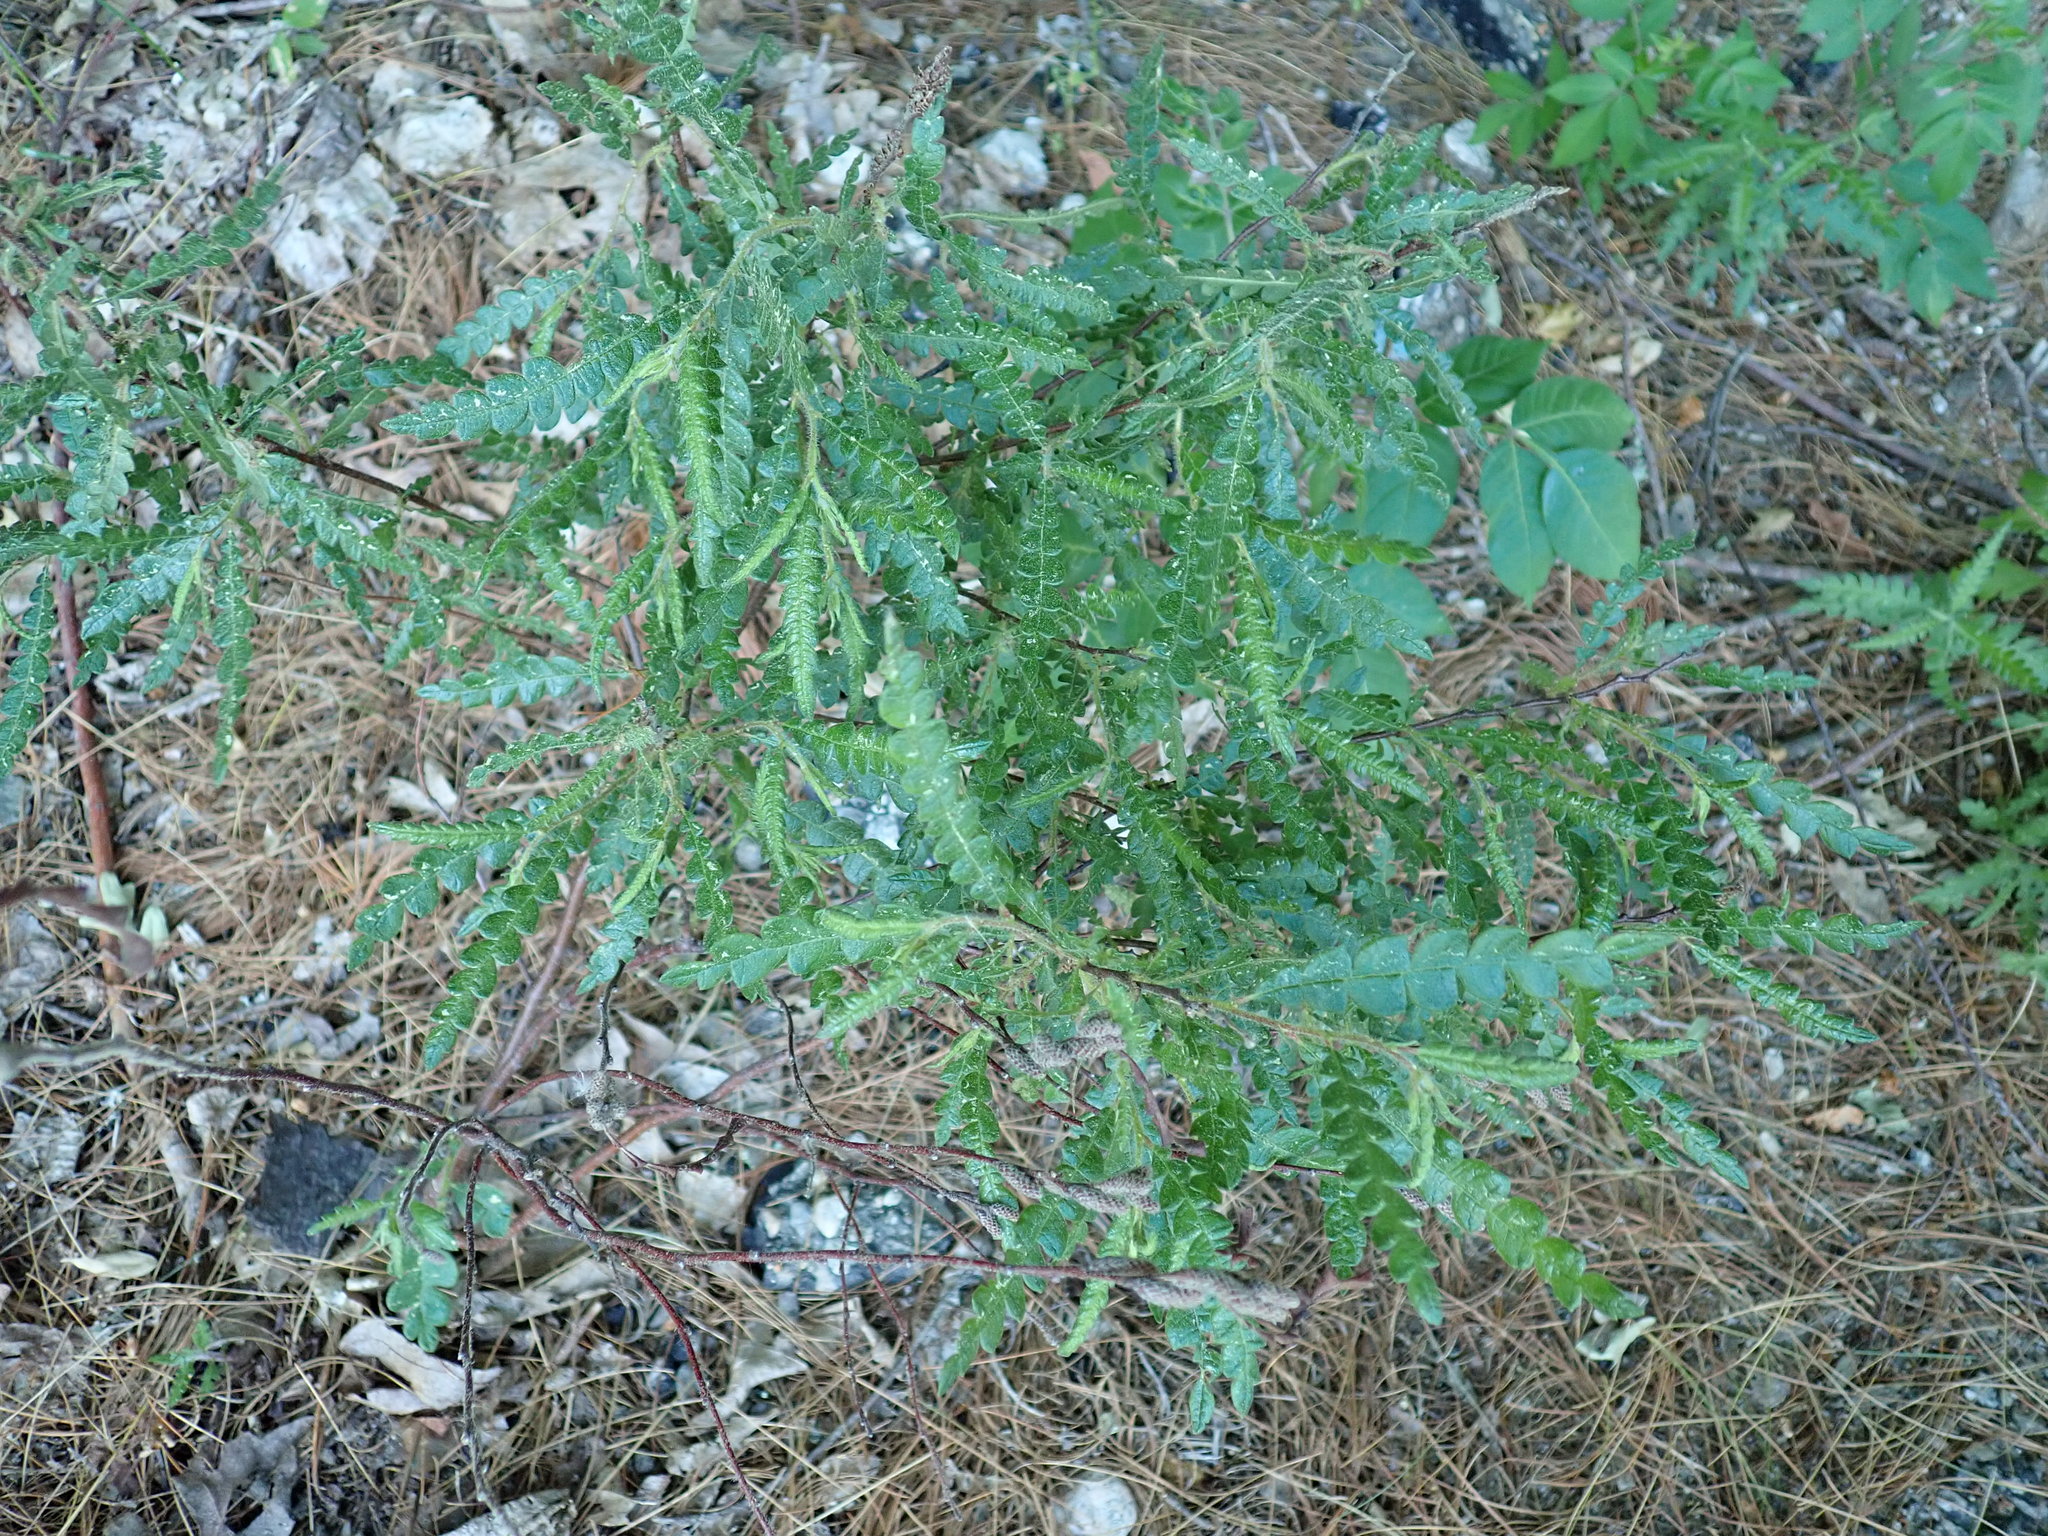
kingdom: Plantae
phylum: Tracheophyta
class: Magnoliopsida
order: Fagales
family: Myricaceae
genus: Comptonia
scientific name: Comptonia peregrina
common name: Sweet-fern
